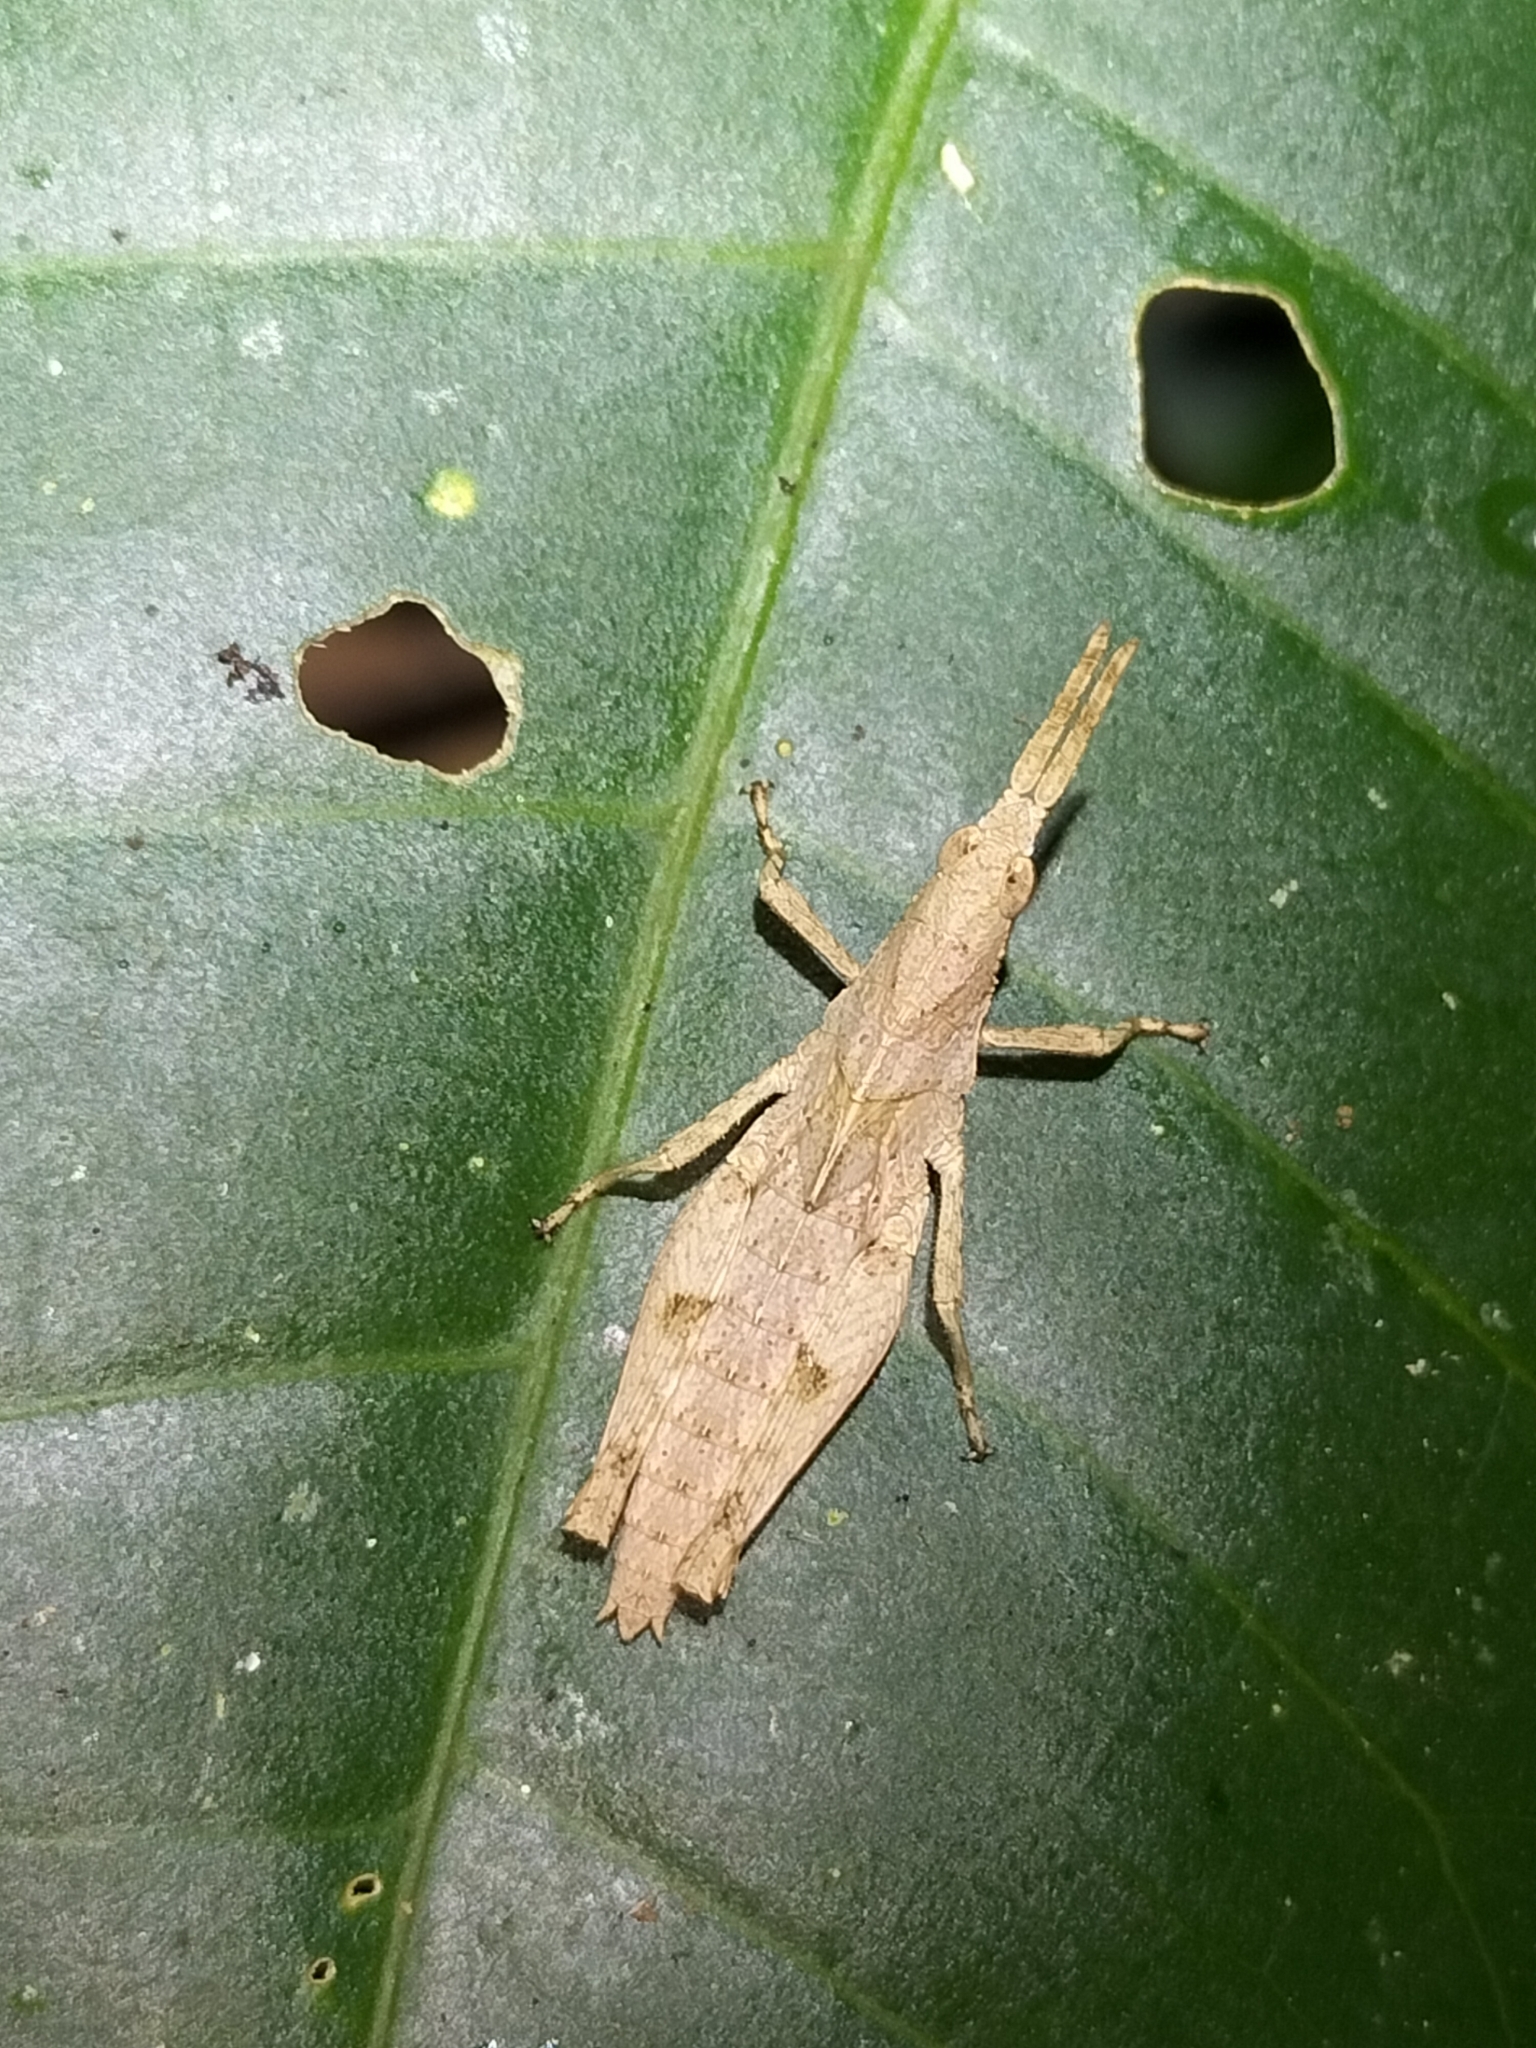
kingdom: Animalia
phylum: Arthropoda
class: Insecta
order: Orthoptera
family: Pyrgomorphidae
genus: Desmoptera
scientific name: Desmoptera truncatipennis
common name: Large forest pyrgomorph
